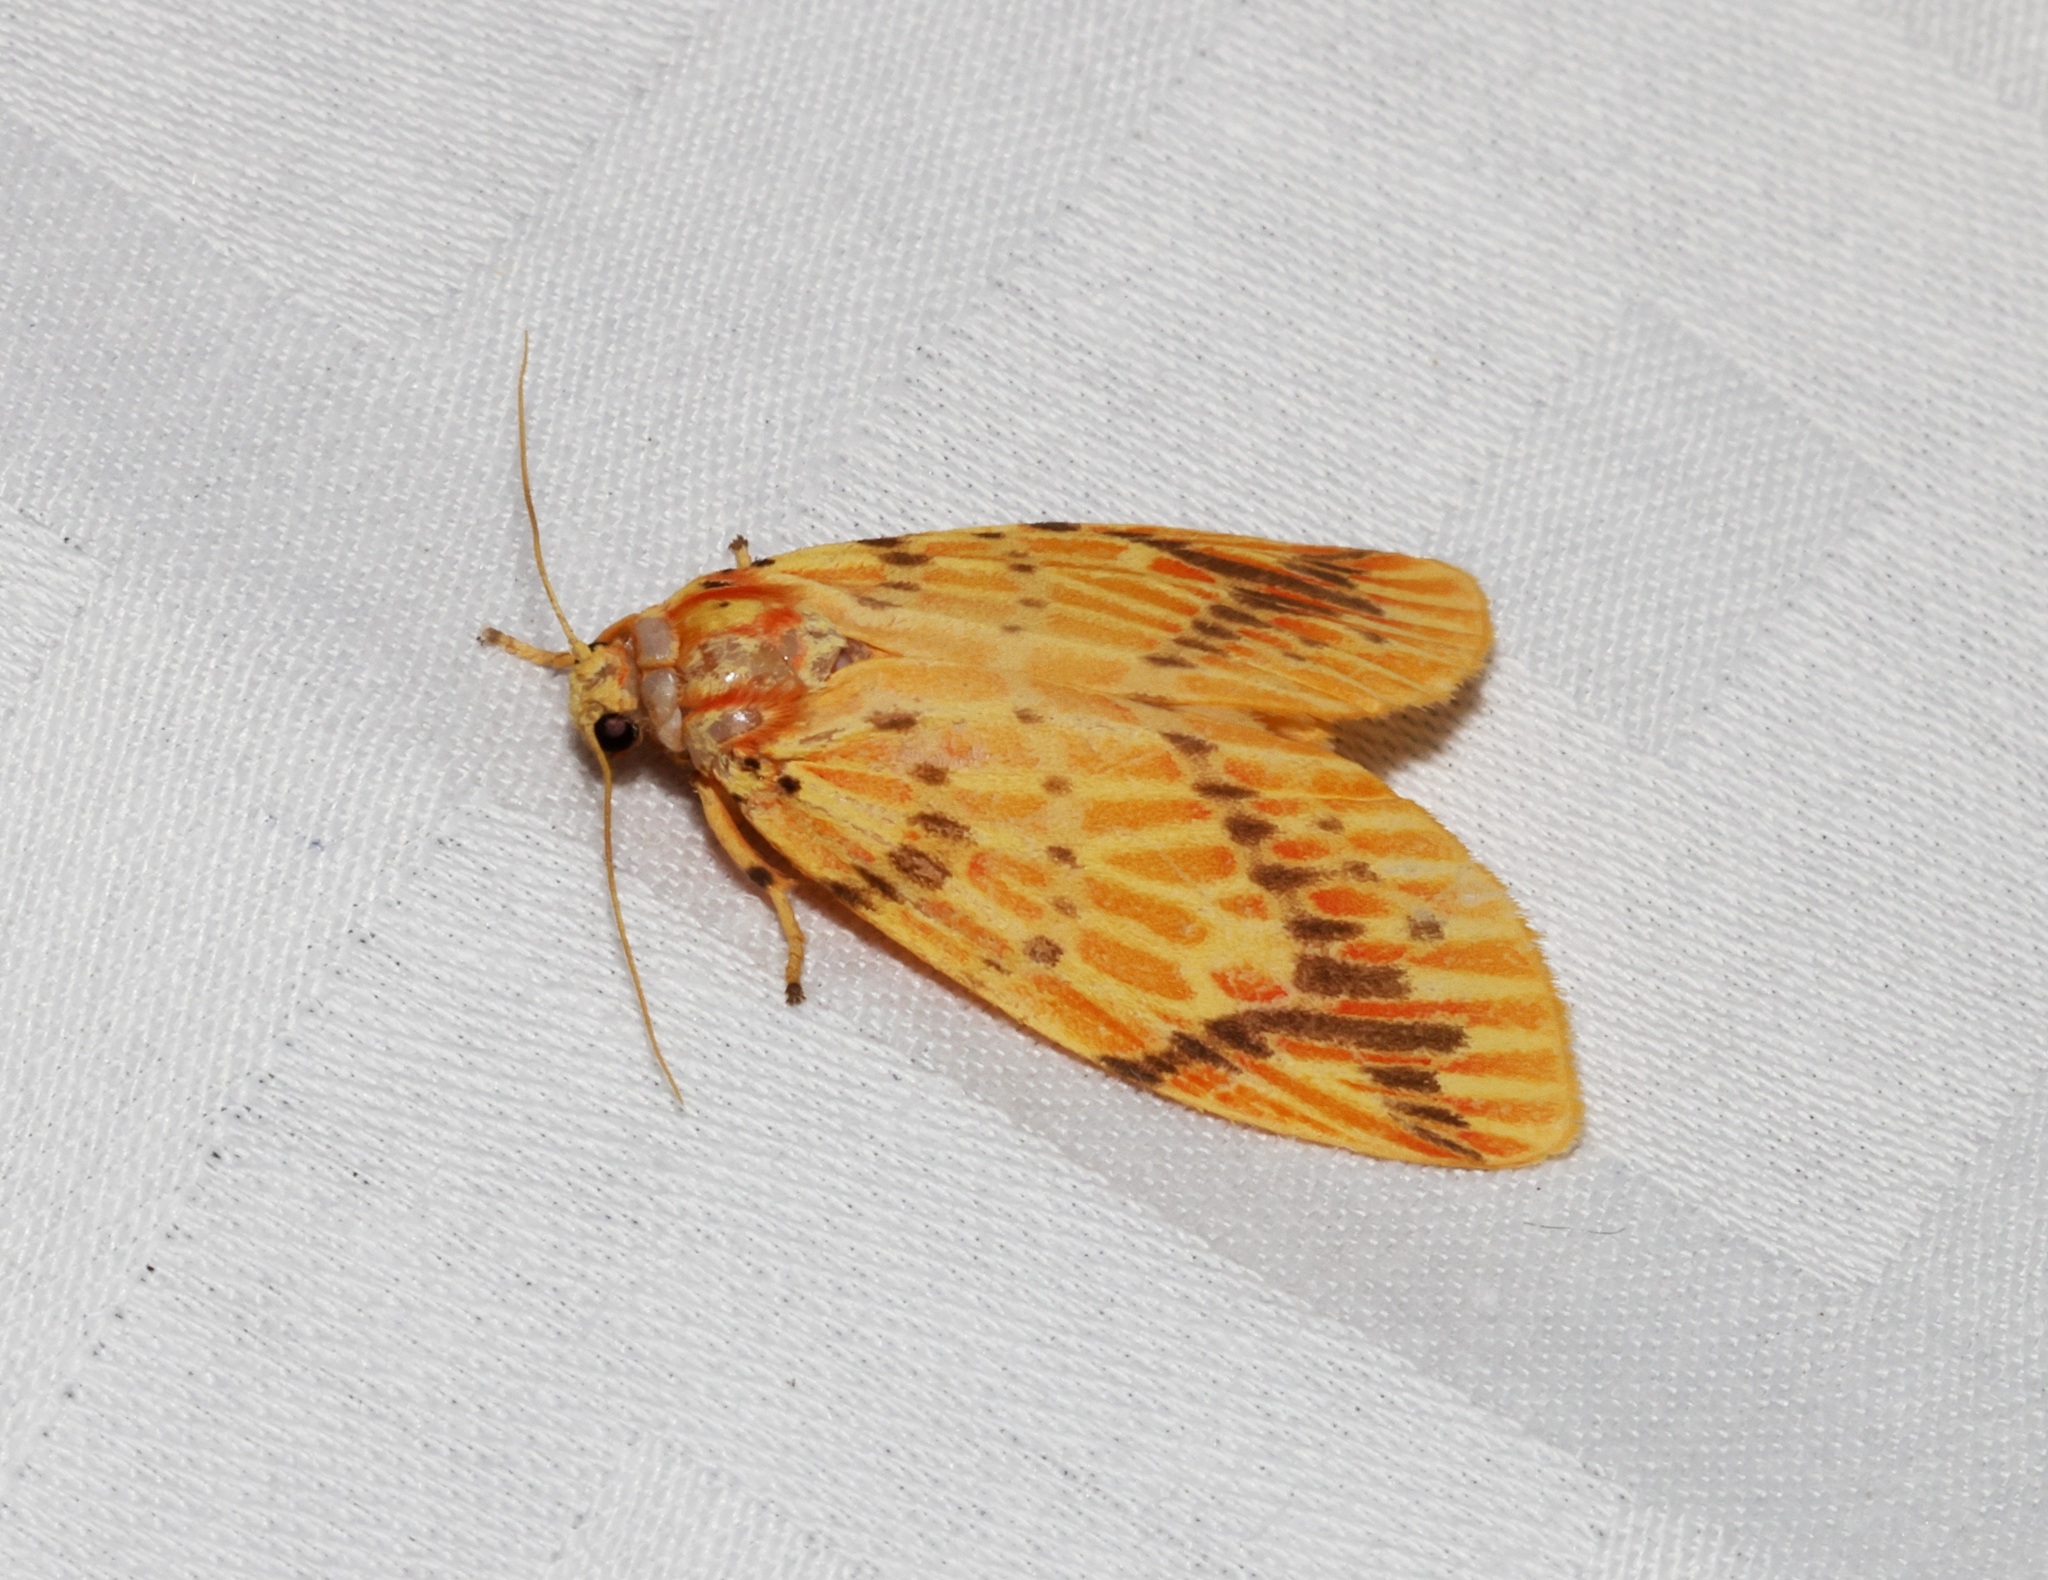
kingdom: Animalia
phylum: Arthropoda
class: Insecta
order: Lepidoptera
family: Erebidae
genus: Barsine
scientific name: Barsine striata
